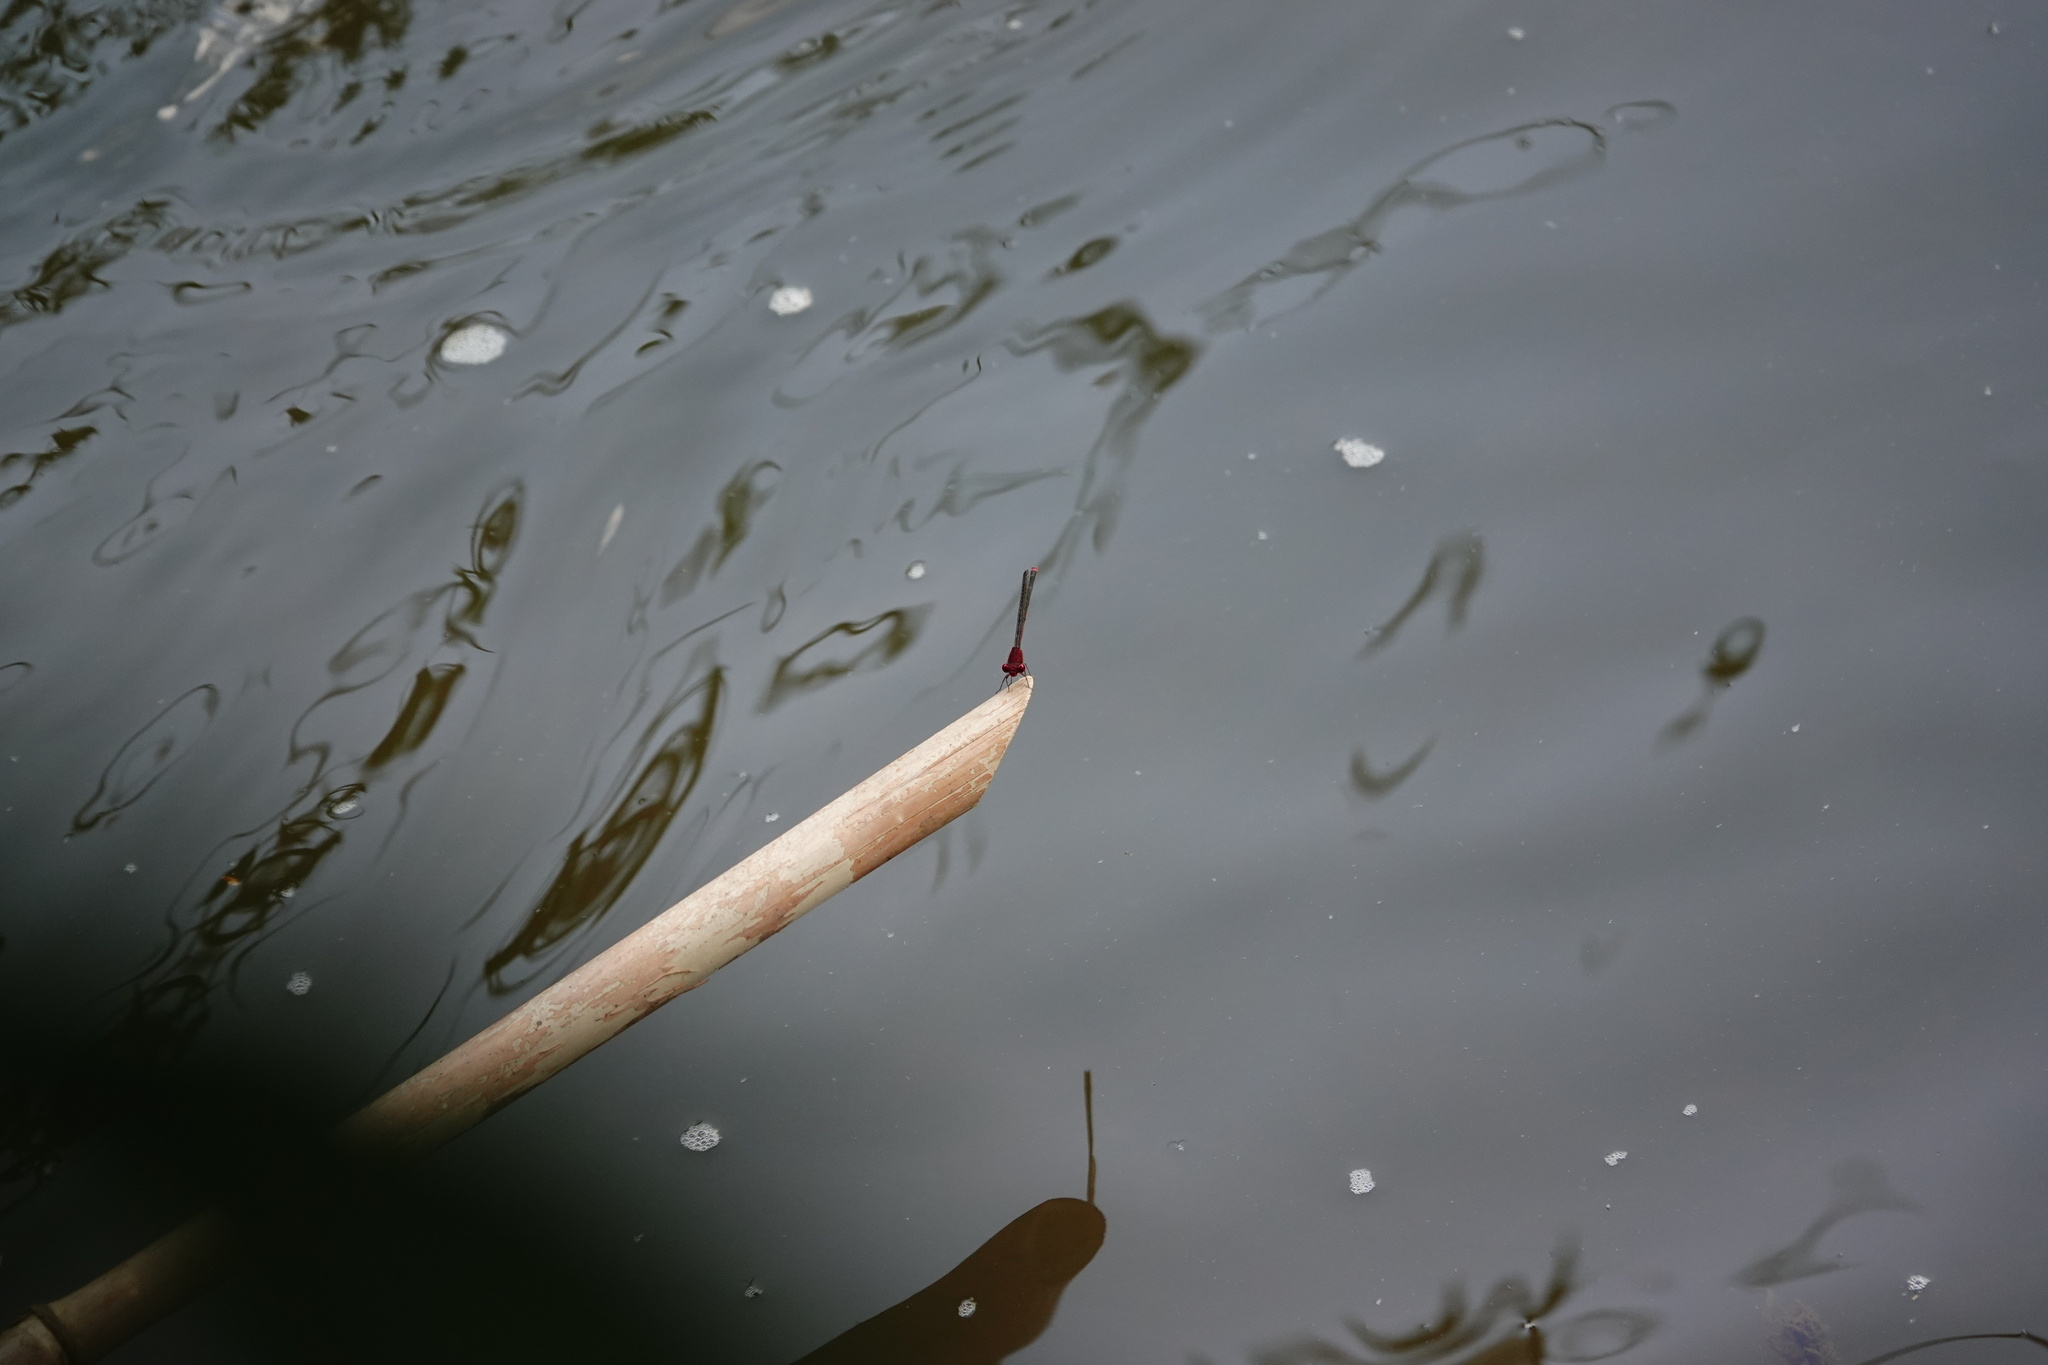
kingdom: Animalia
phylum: Arthropoda
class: Insecta
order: Odonata
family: Coenagrionidae
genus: Pseudagrion
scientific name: Pseudagrion pilidorsum
